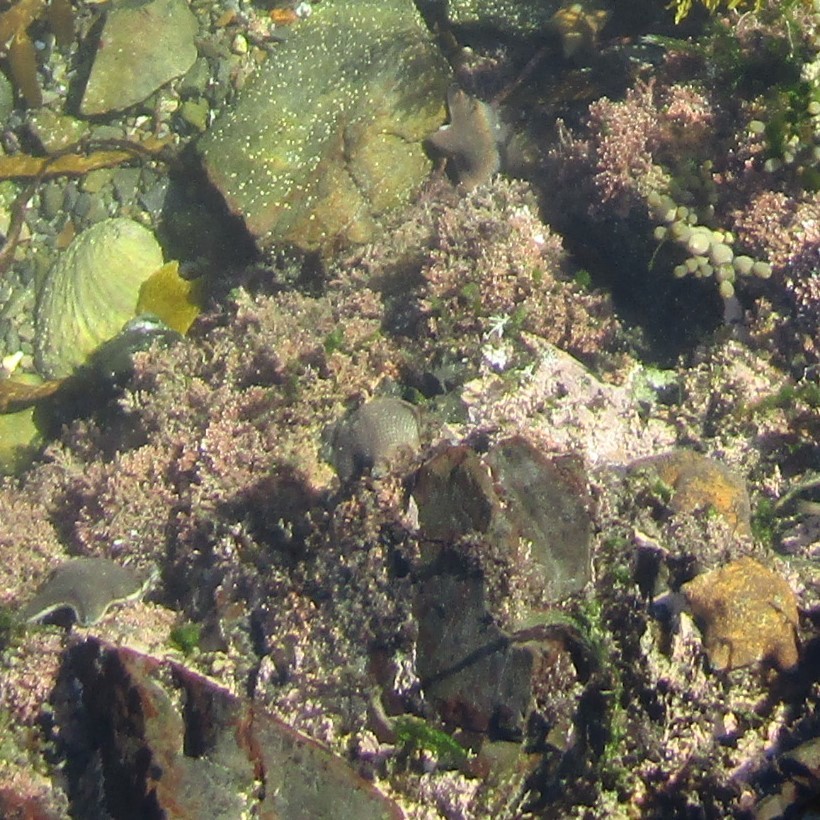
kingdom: Animalia
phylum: Echinodermata
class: Asteroidea
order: Valvatida
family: Asterinidae
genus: Patiriella
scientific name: Patiriella regularis
